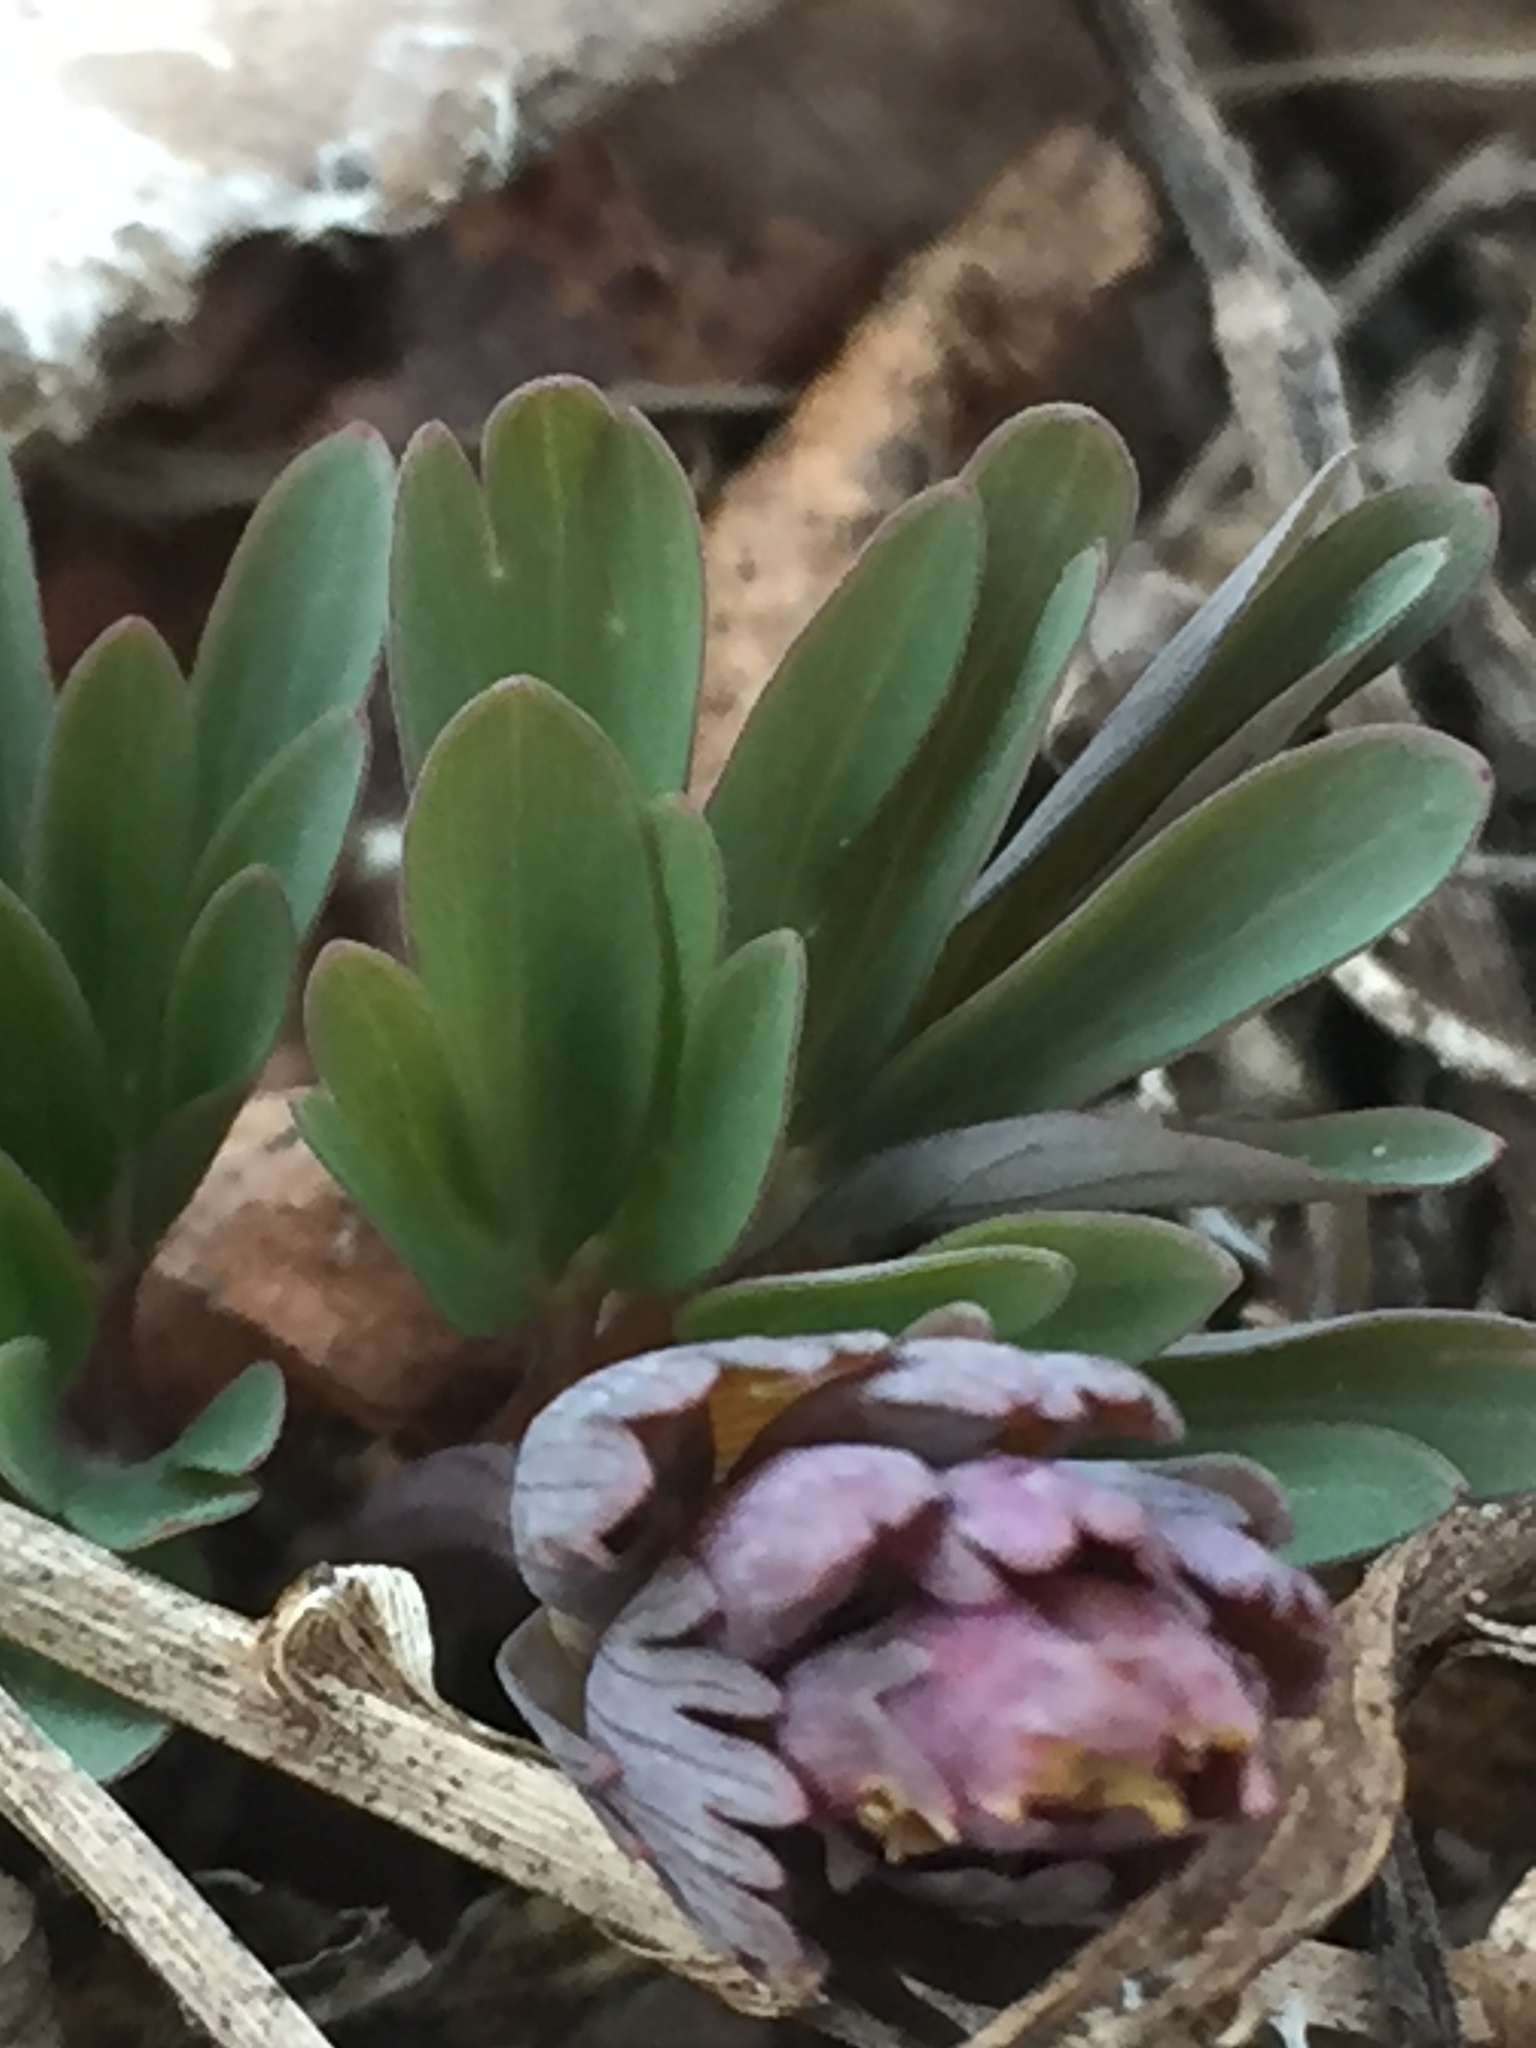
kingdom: Plantae
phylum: Tracheophyta
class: Magnoliopsida
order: Ranunculales
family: Papaveraceae
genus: Corydalis
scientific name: Corydalis solida
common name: Bird-in-a-bush
